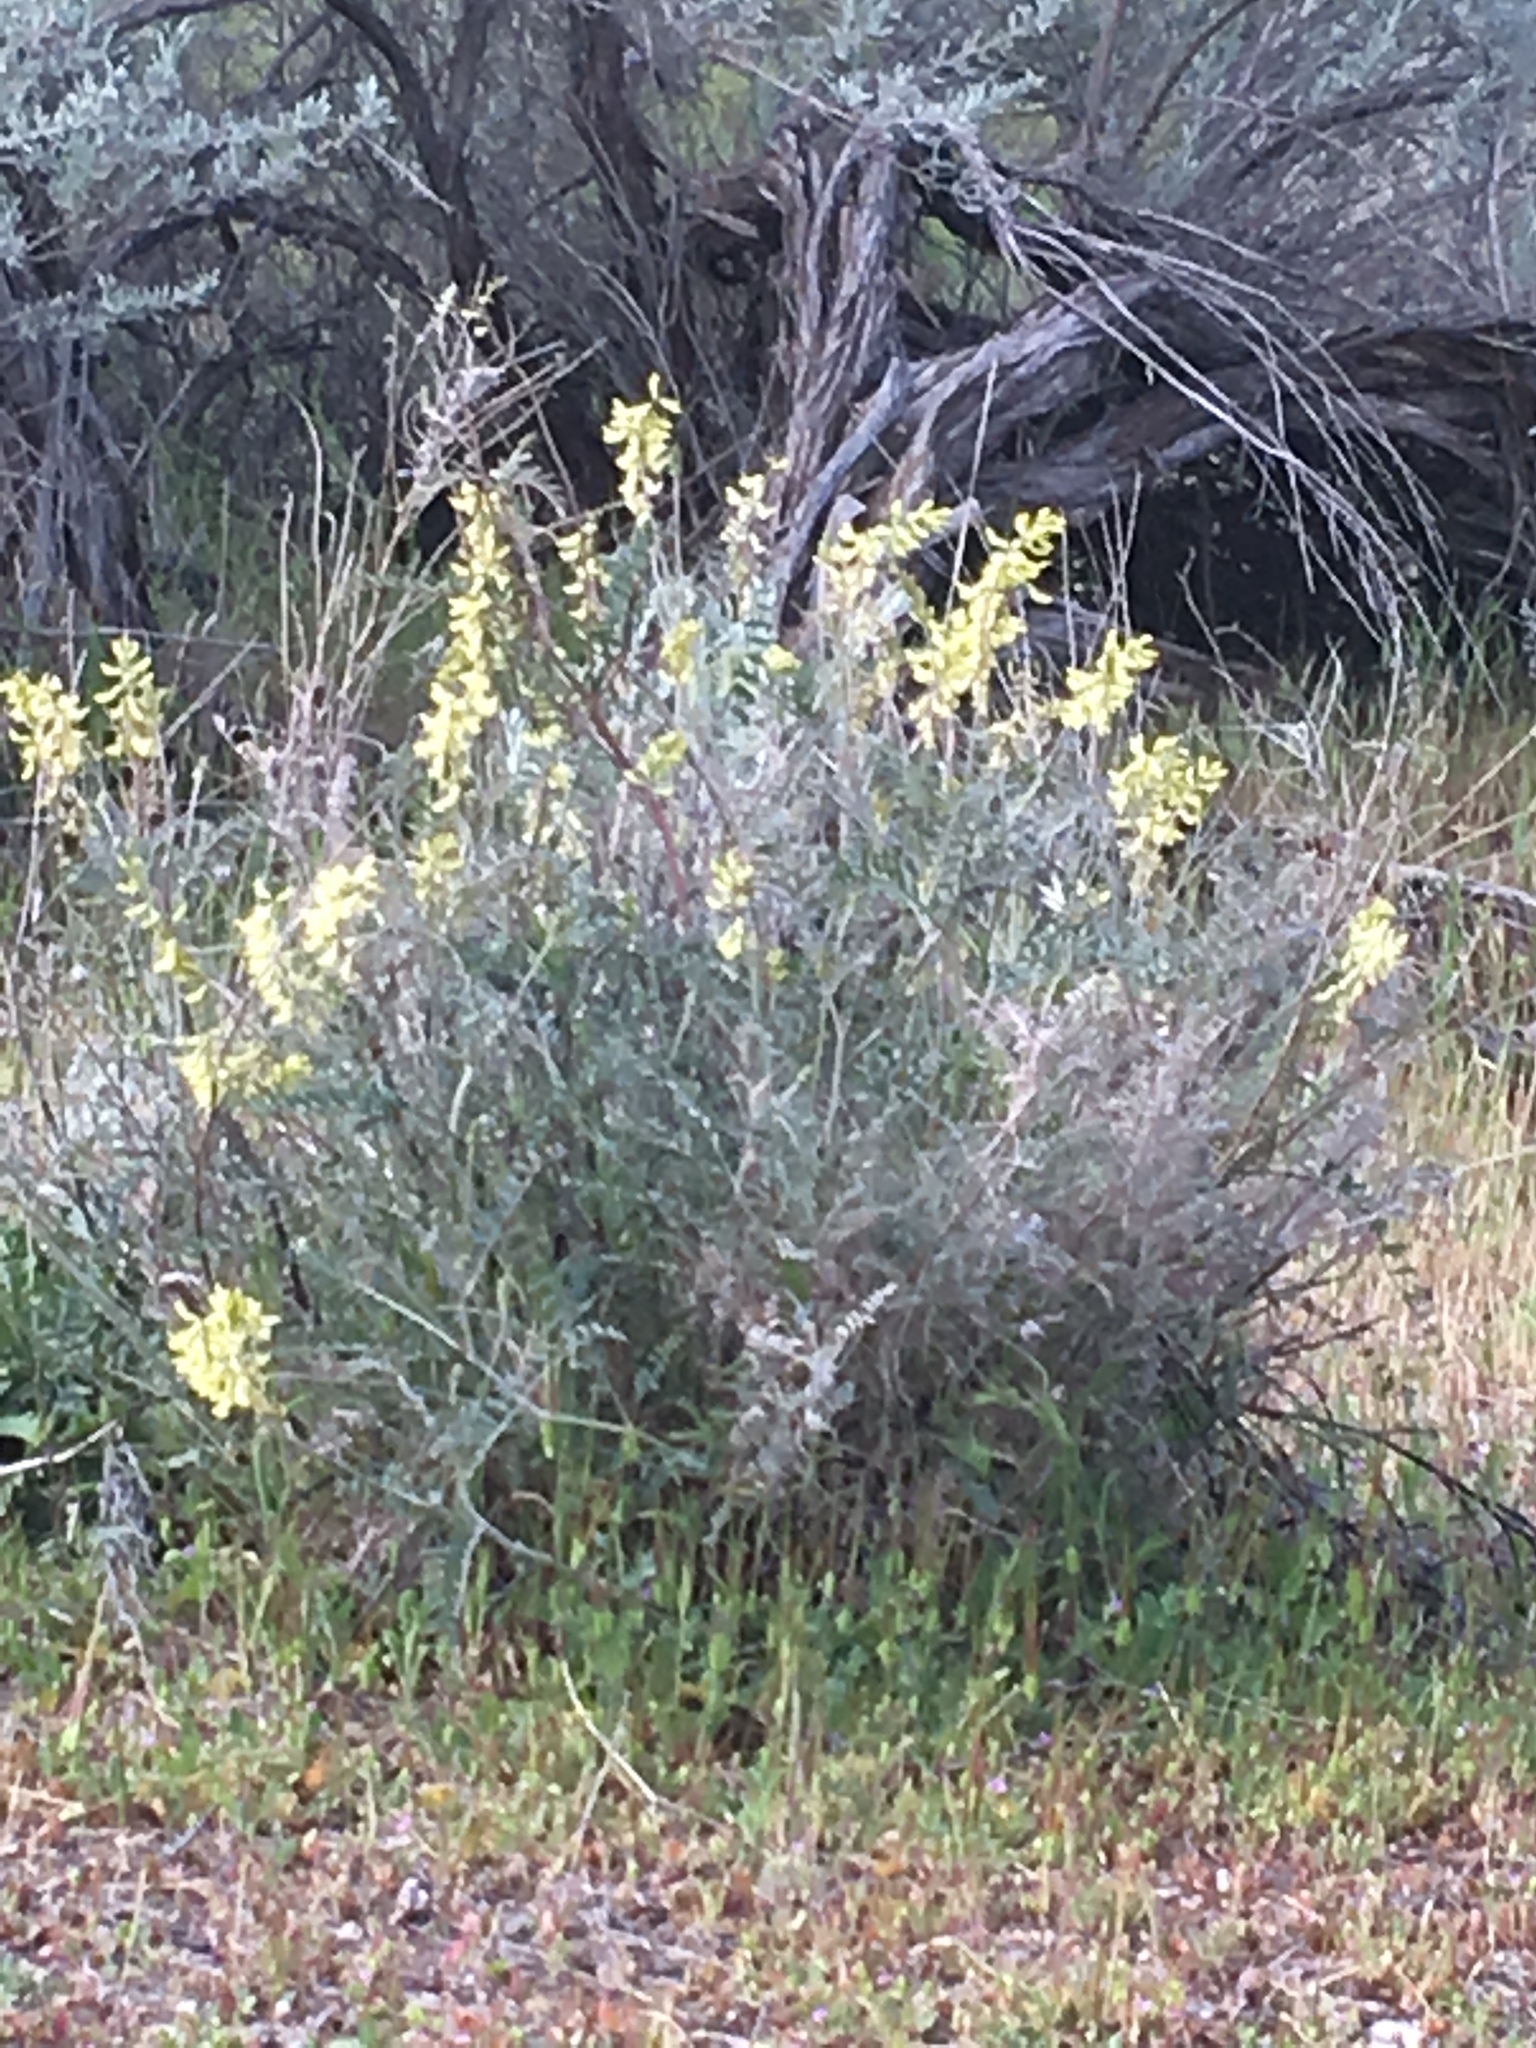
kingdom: Plantae
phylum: Tracheophyta
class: Magnoliopsida
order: Fabales
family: Fabaceae
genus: Astragalus
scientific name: Astragalus trichopodus
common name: Santa barbara milk-vetch
